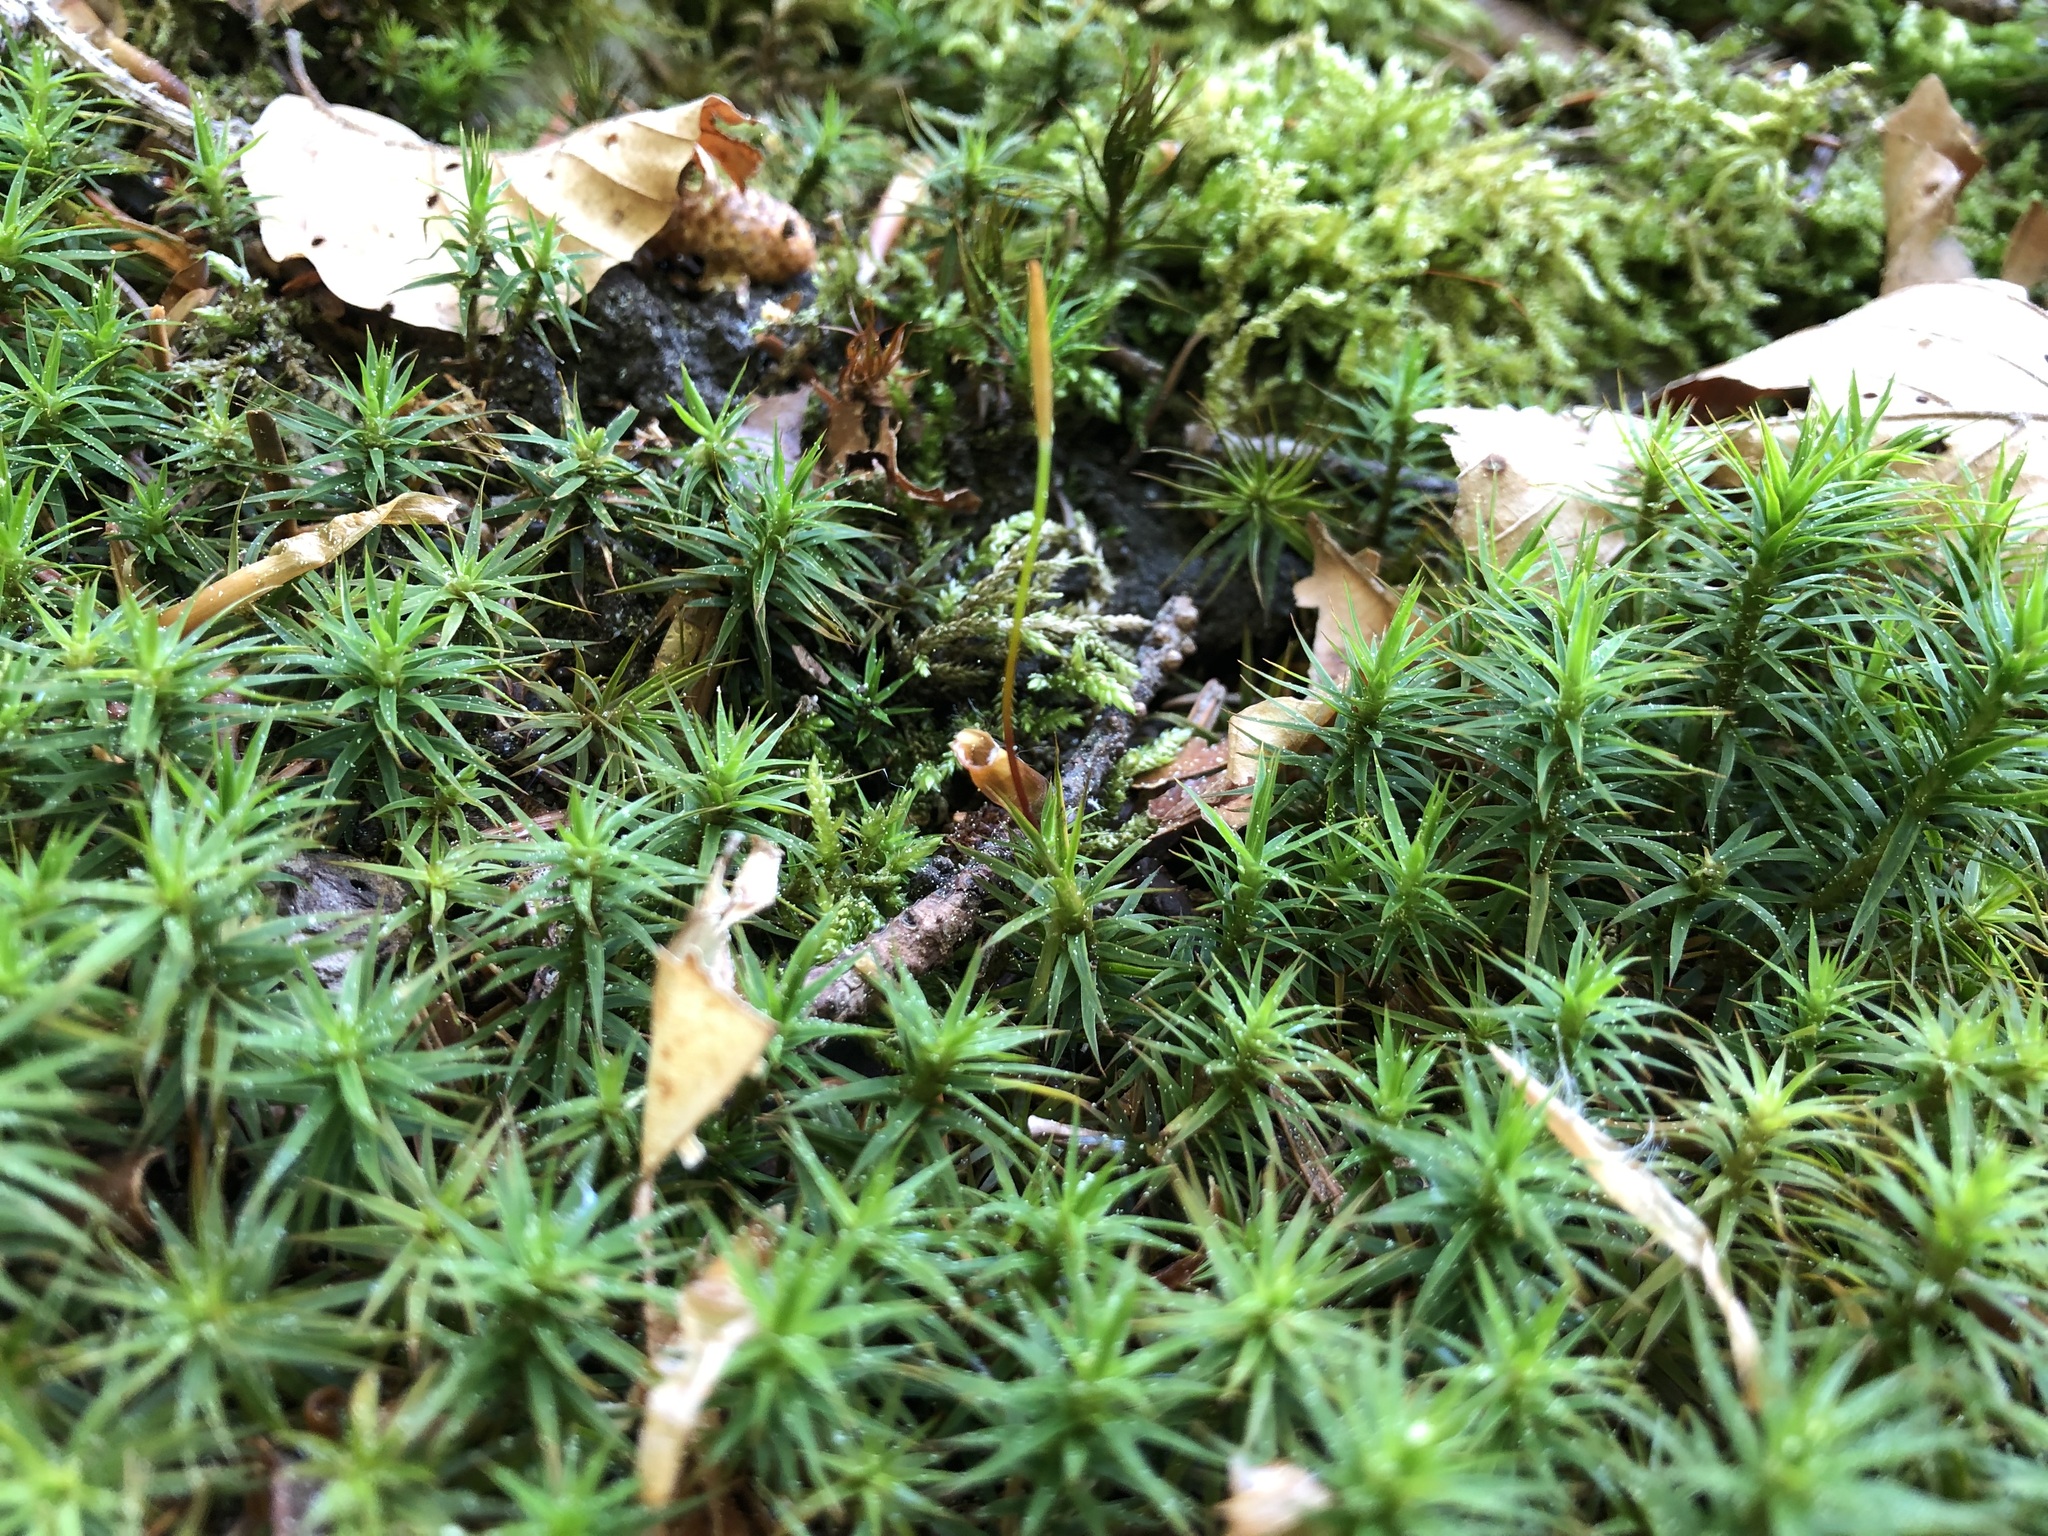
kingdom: Plantae
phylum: Bryophyta
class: Polytrichopsida
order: Polytrichales
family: Polytrichaceae
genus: Polytrichum
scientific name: Polytrichum formosum
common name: Bank haircap moss
